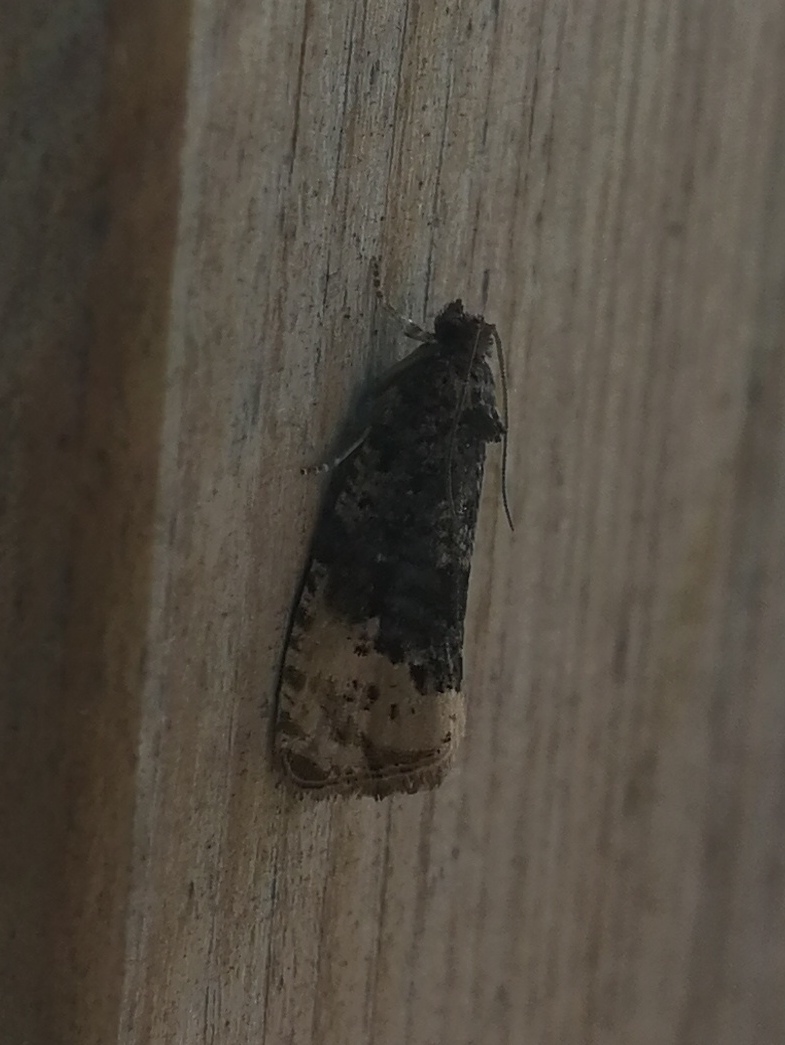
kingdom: Animalia
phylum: Arthropoda
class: Insecta
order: Lepidoptera
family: Tortricidae
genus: Hedya
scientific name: Hedya ochroleucana
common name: Buff-tipped marble
